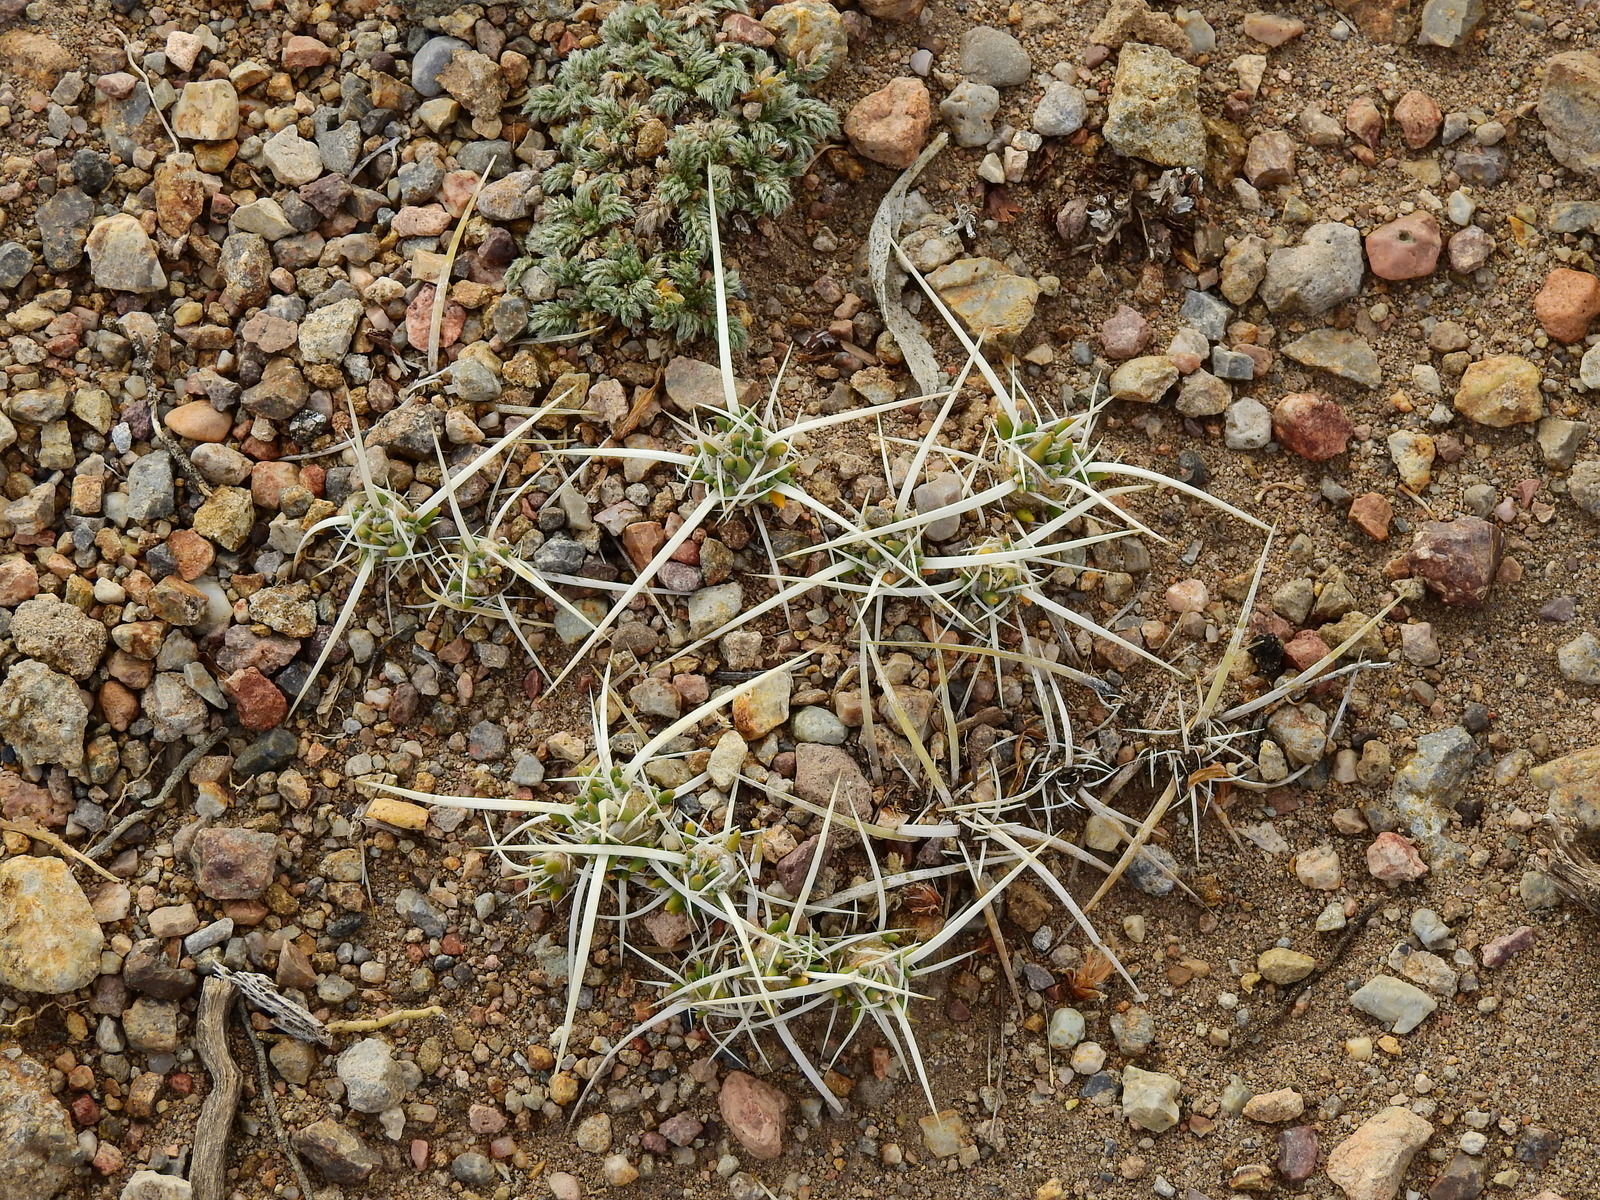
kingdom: Plantae
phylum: Tracheophyta
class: Magnoliopsida
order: Caryophyllales
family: Cactaceae
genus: Maihuenia
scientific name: Maihuenia patagonica
